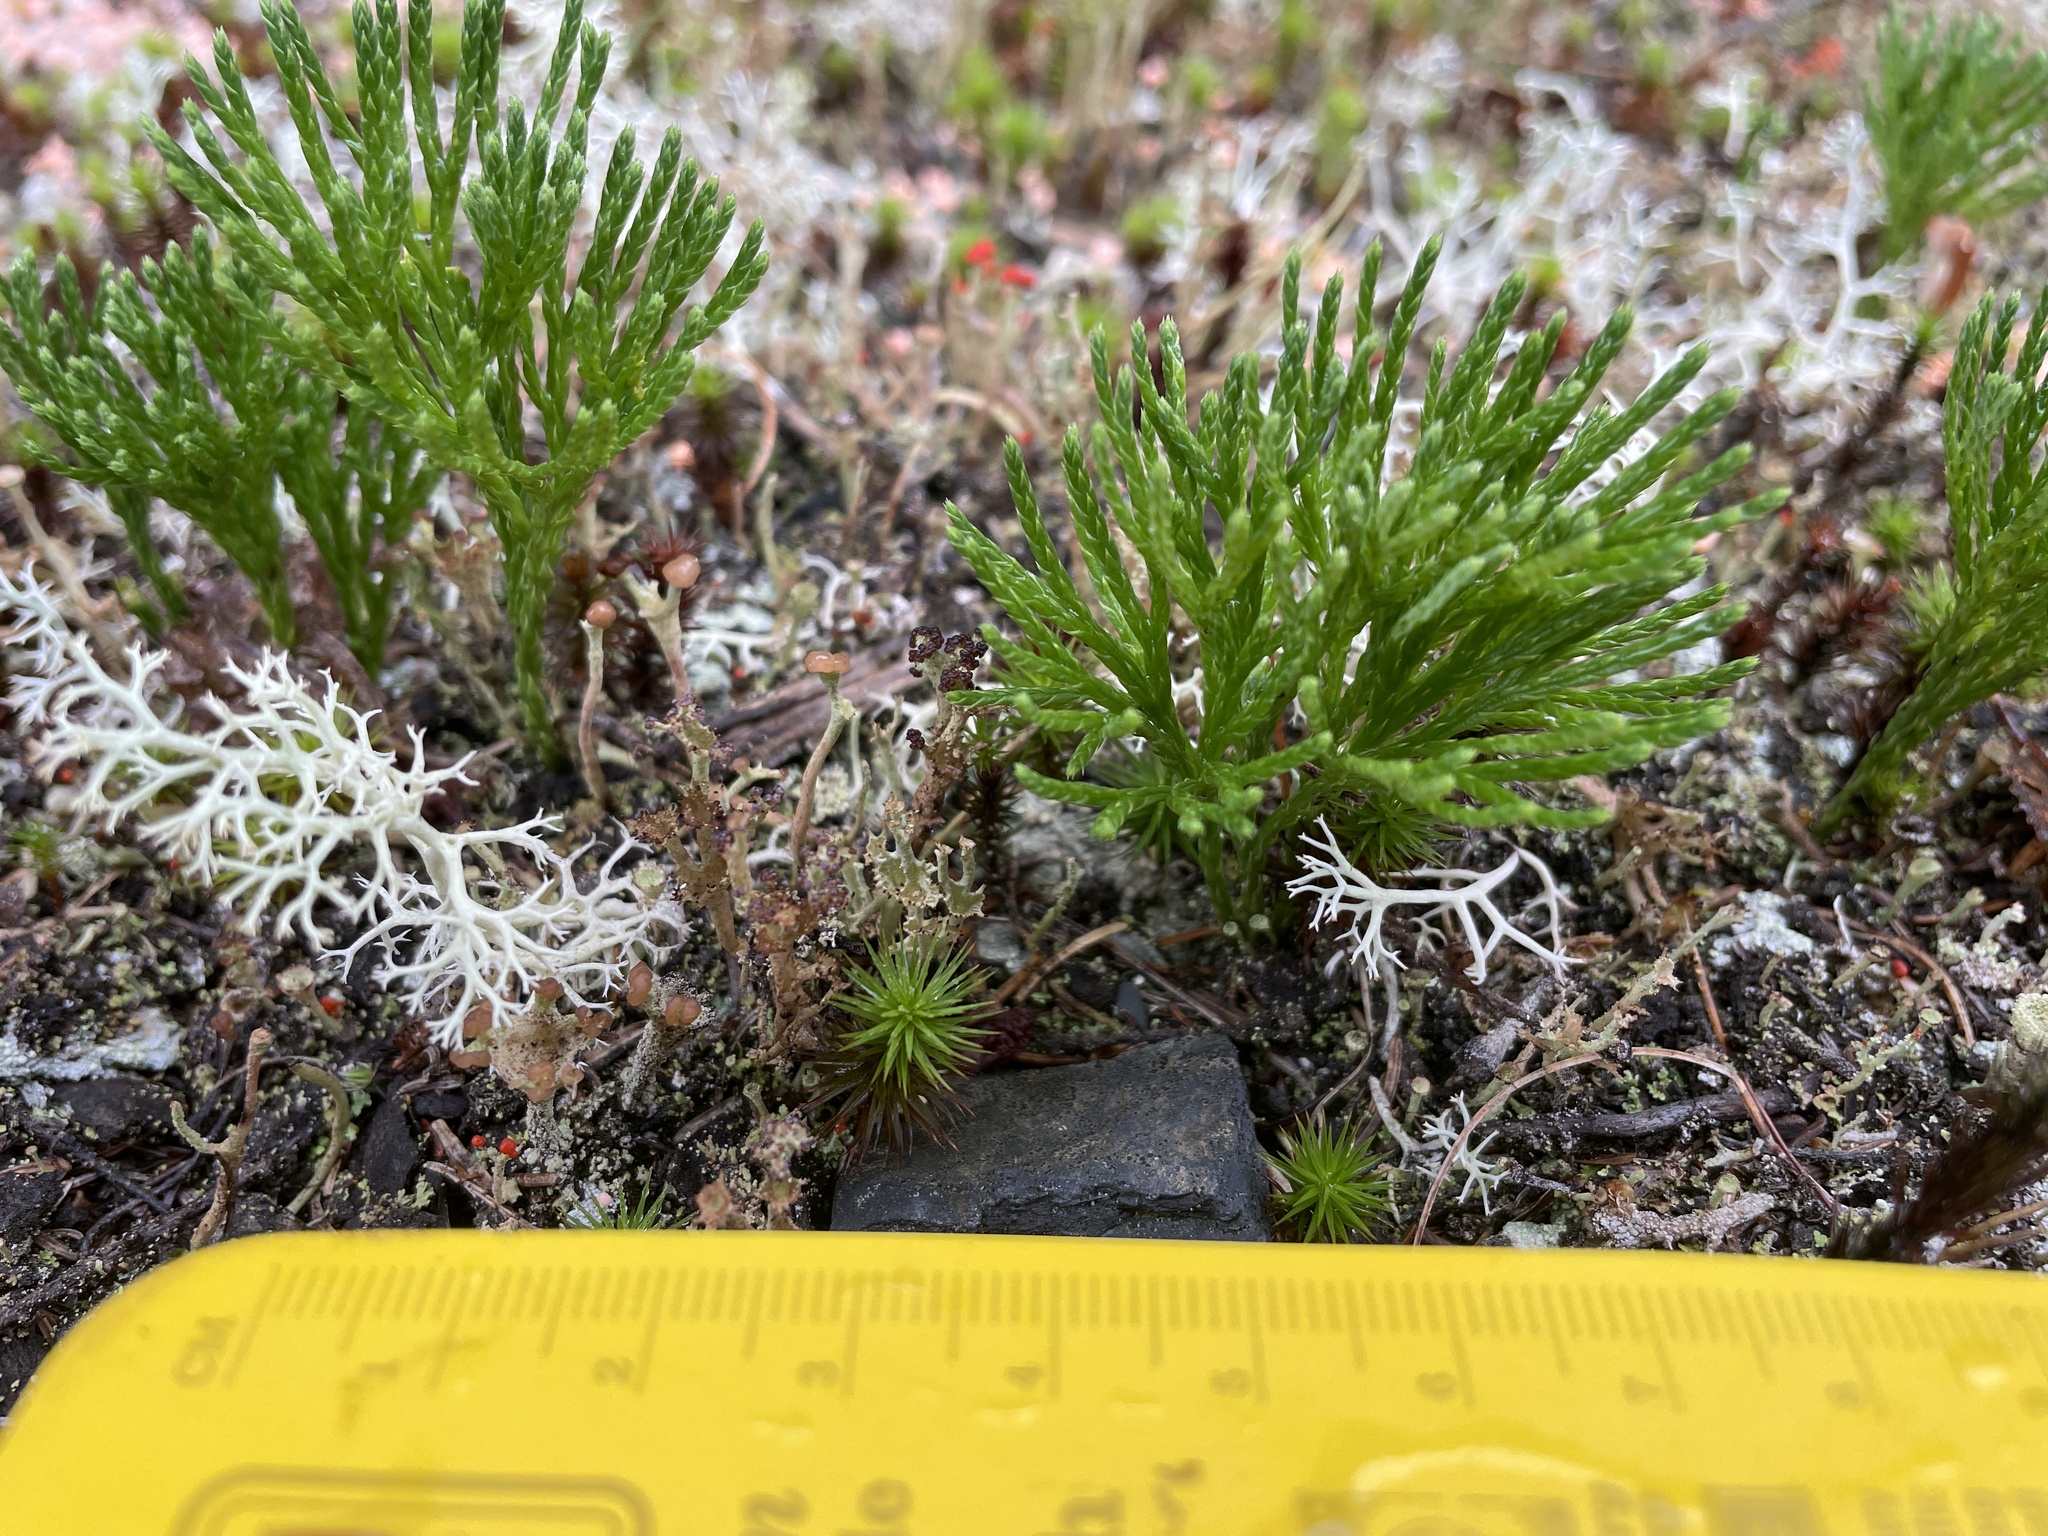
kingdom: Plantae
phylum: Tracheophyta
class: Lycopodiopsida
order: Lycopodiales
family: Lycopodiaceae
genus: Diphasiastrum
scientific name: Diphasiastrum tristachyum
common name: Blue ground-cedar
